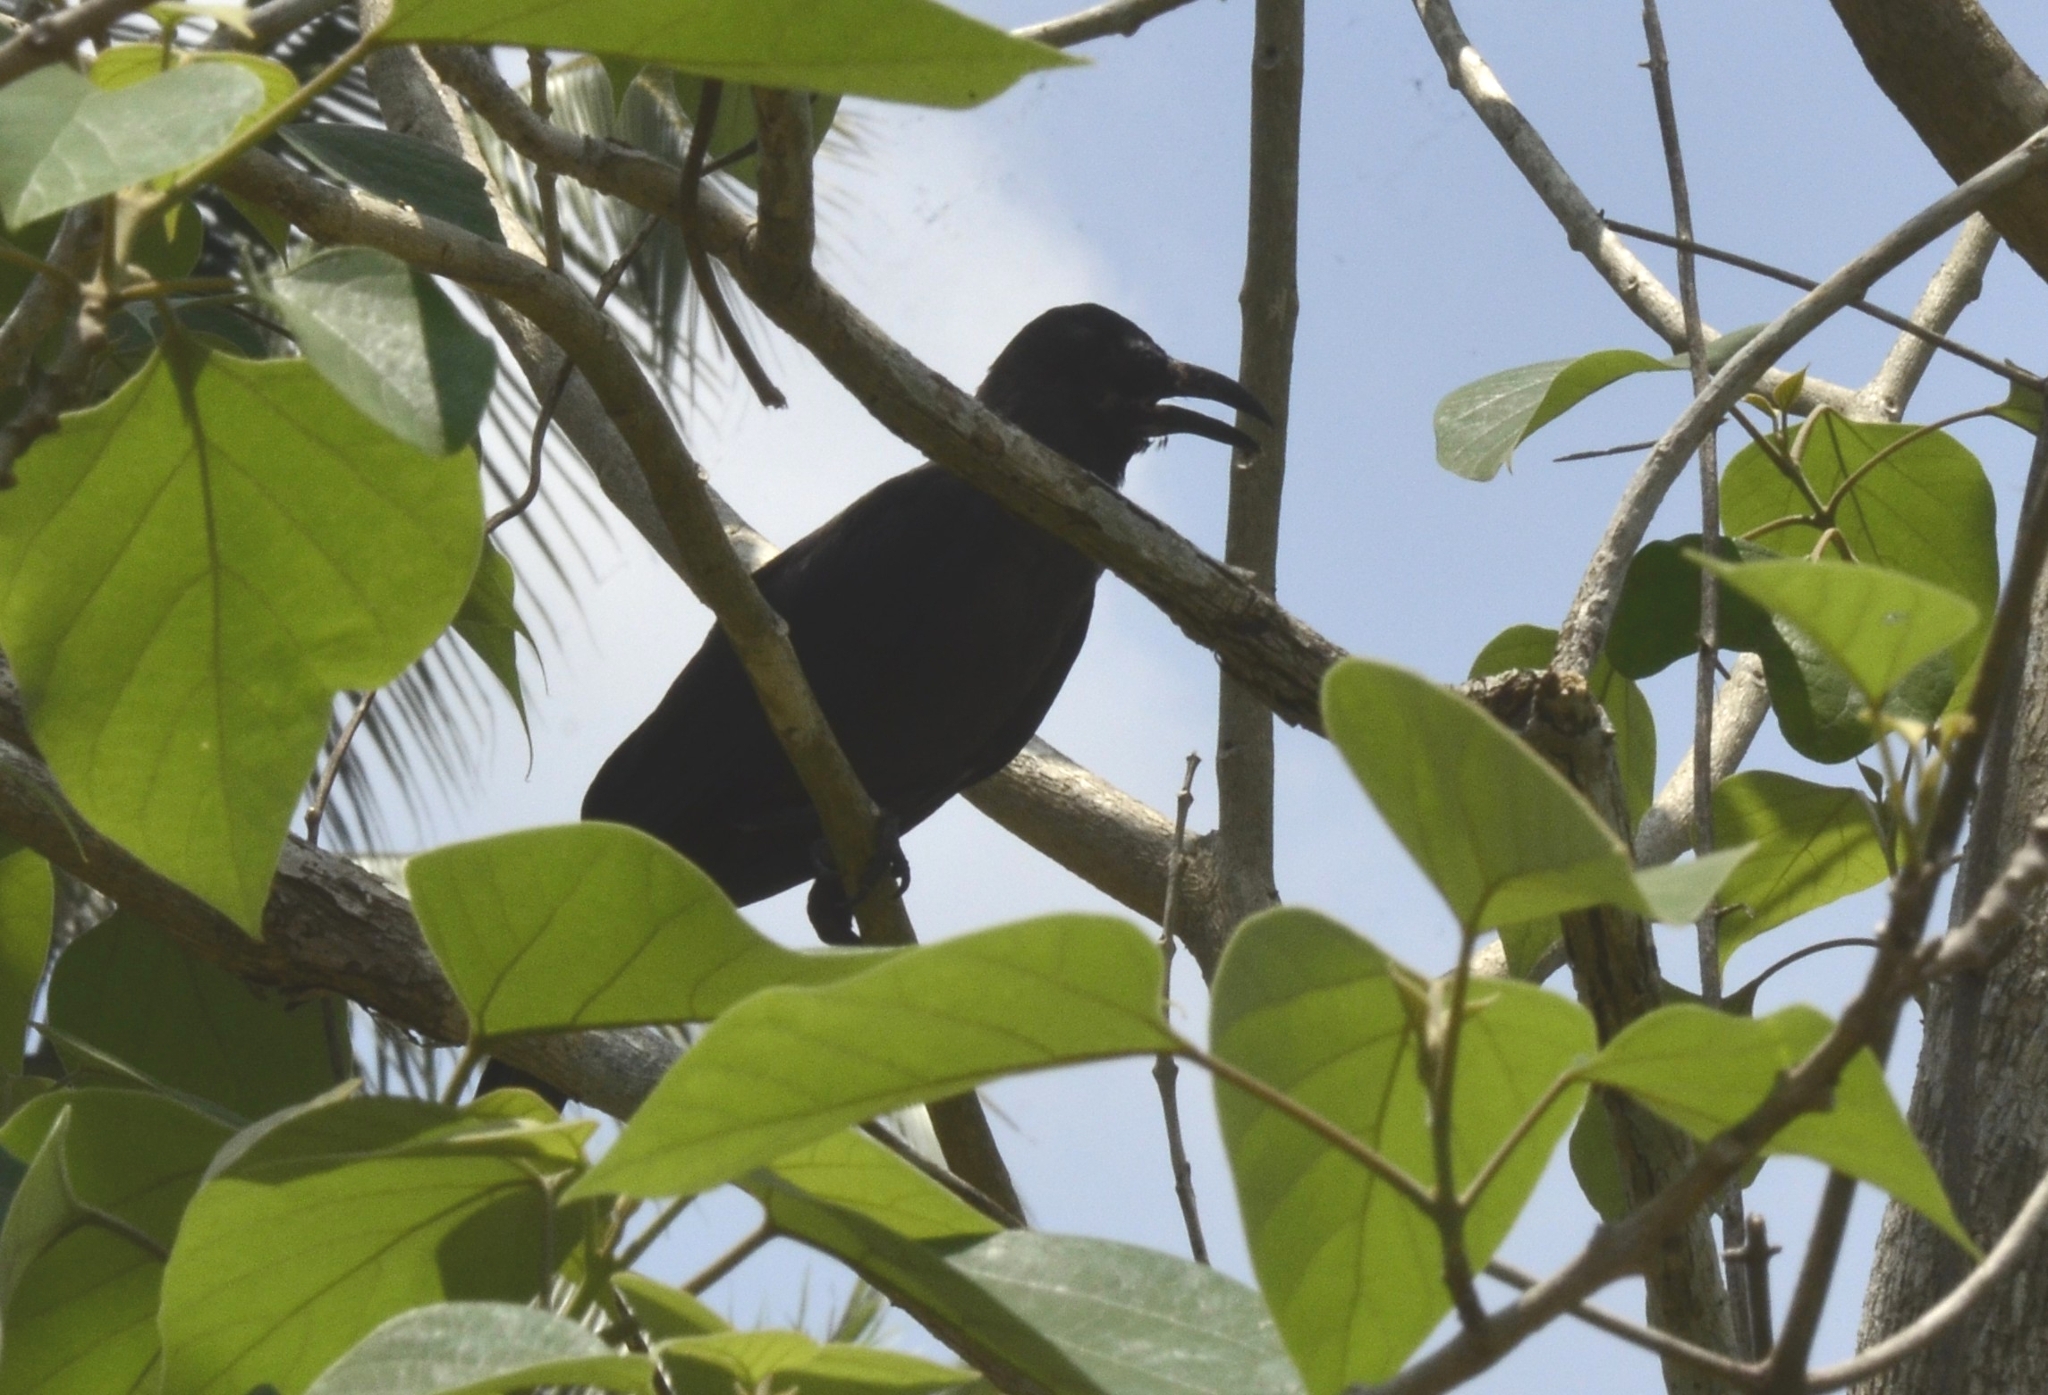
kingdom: Animalia
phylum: Chordata
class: Aves
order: Passeriformes
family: Corvidae
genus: Corvus
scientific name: Corvus macrorhynchos
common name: Large-billed crow
